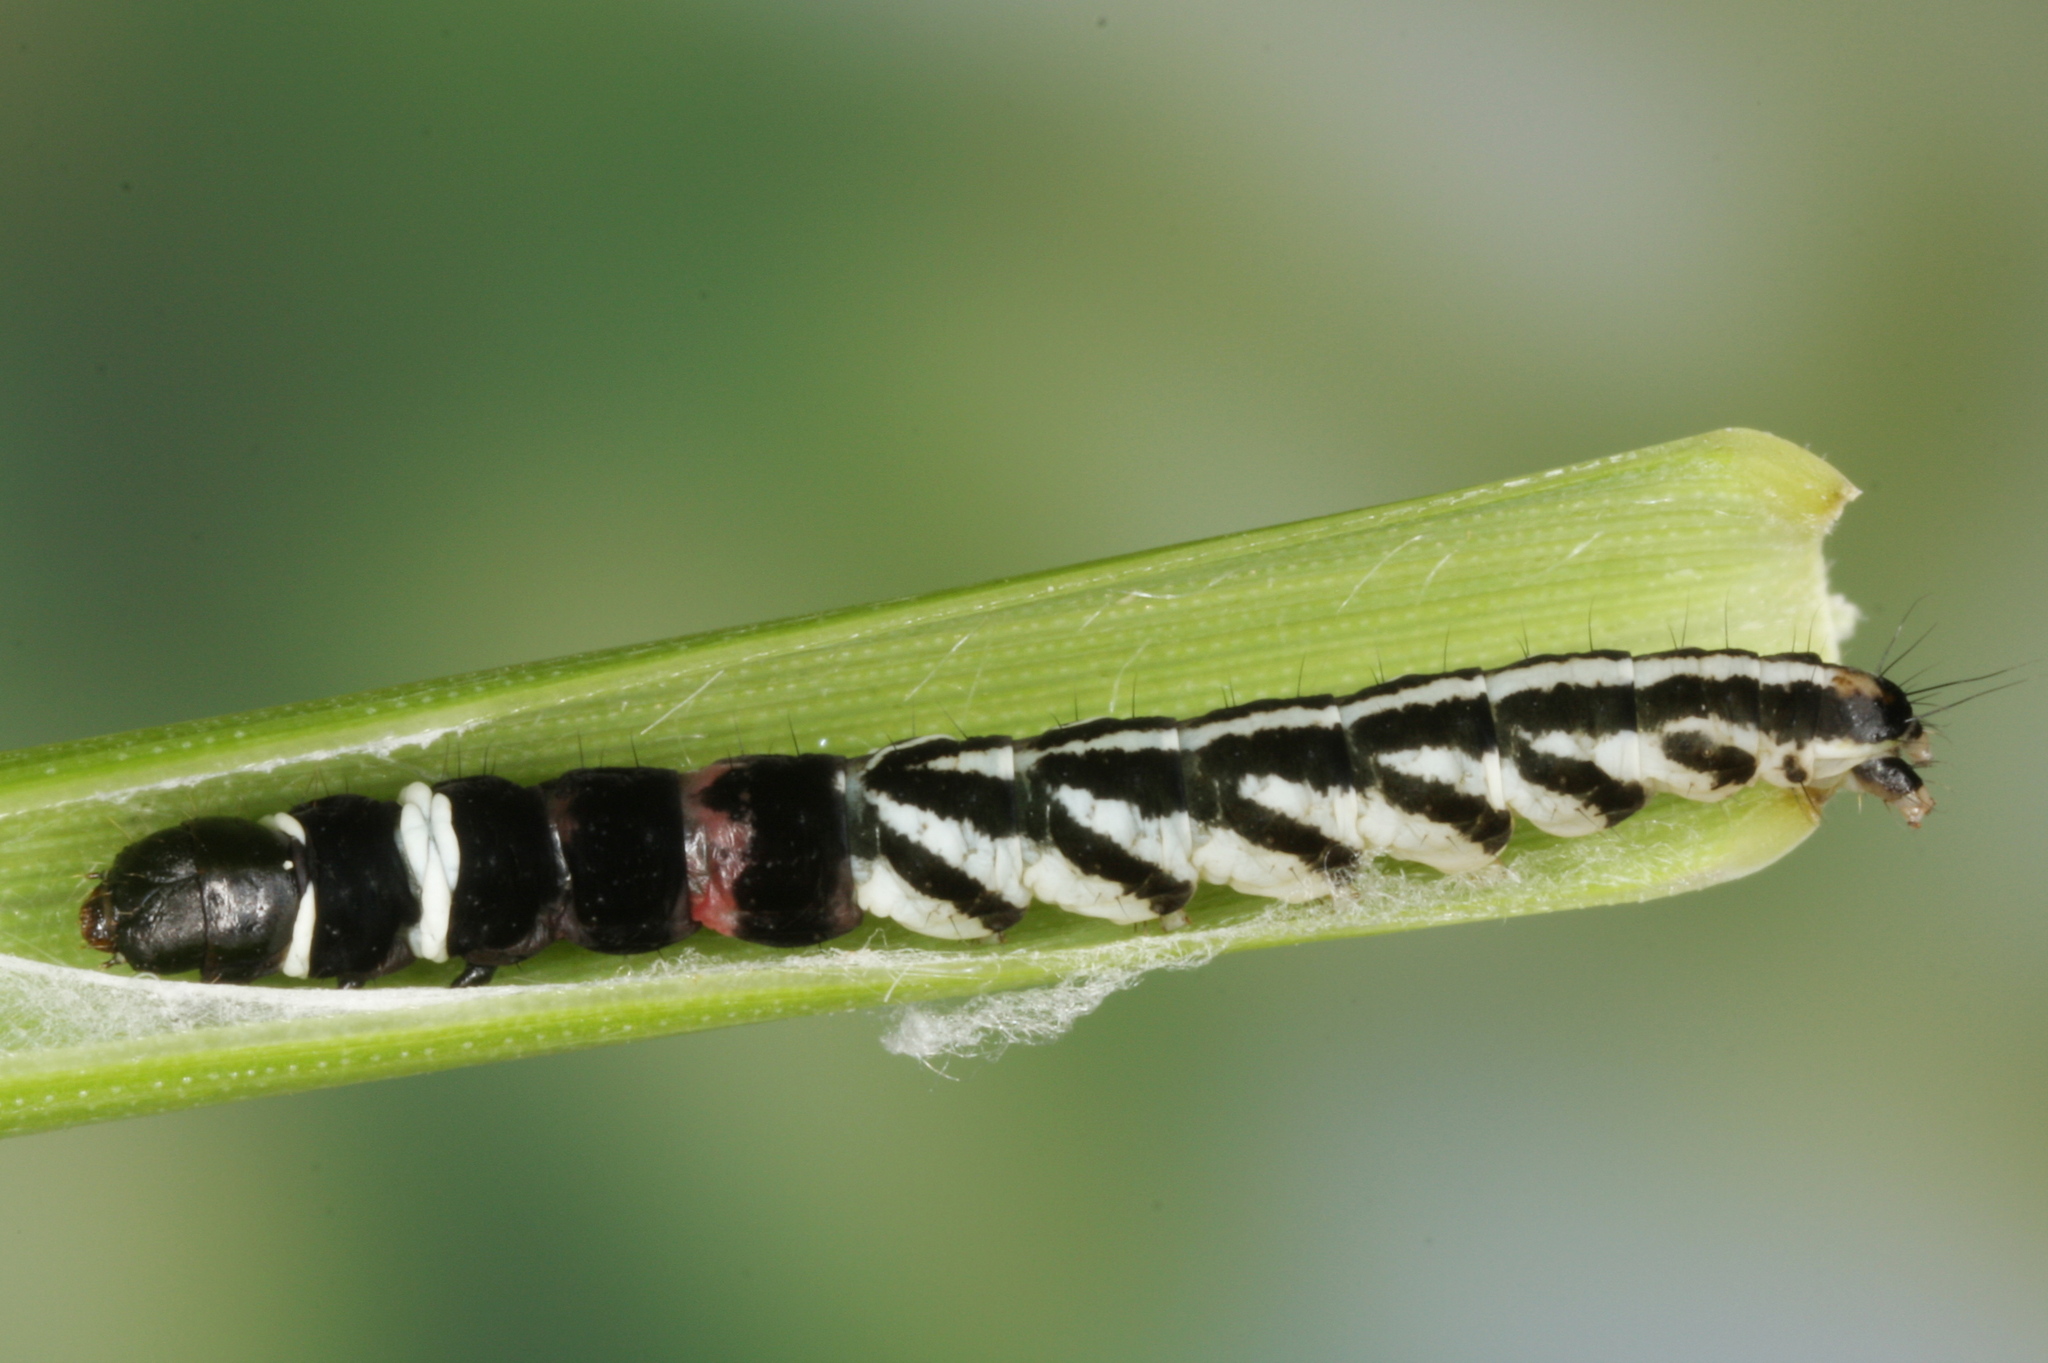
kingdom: Animalia
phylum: Arthropoda
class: Insecta
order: Lepidoptera
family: Gelechiidae
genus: Helcystogramma
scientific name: Helcystogramma lutatella
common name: Clay crest
